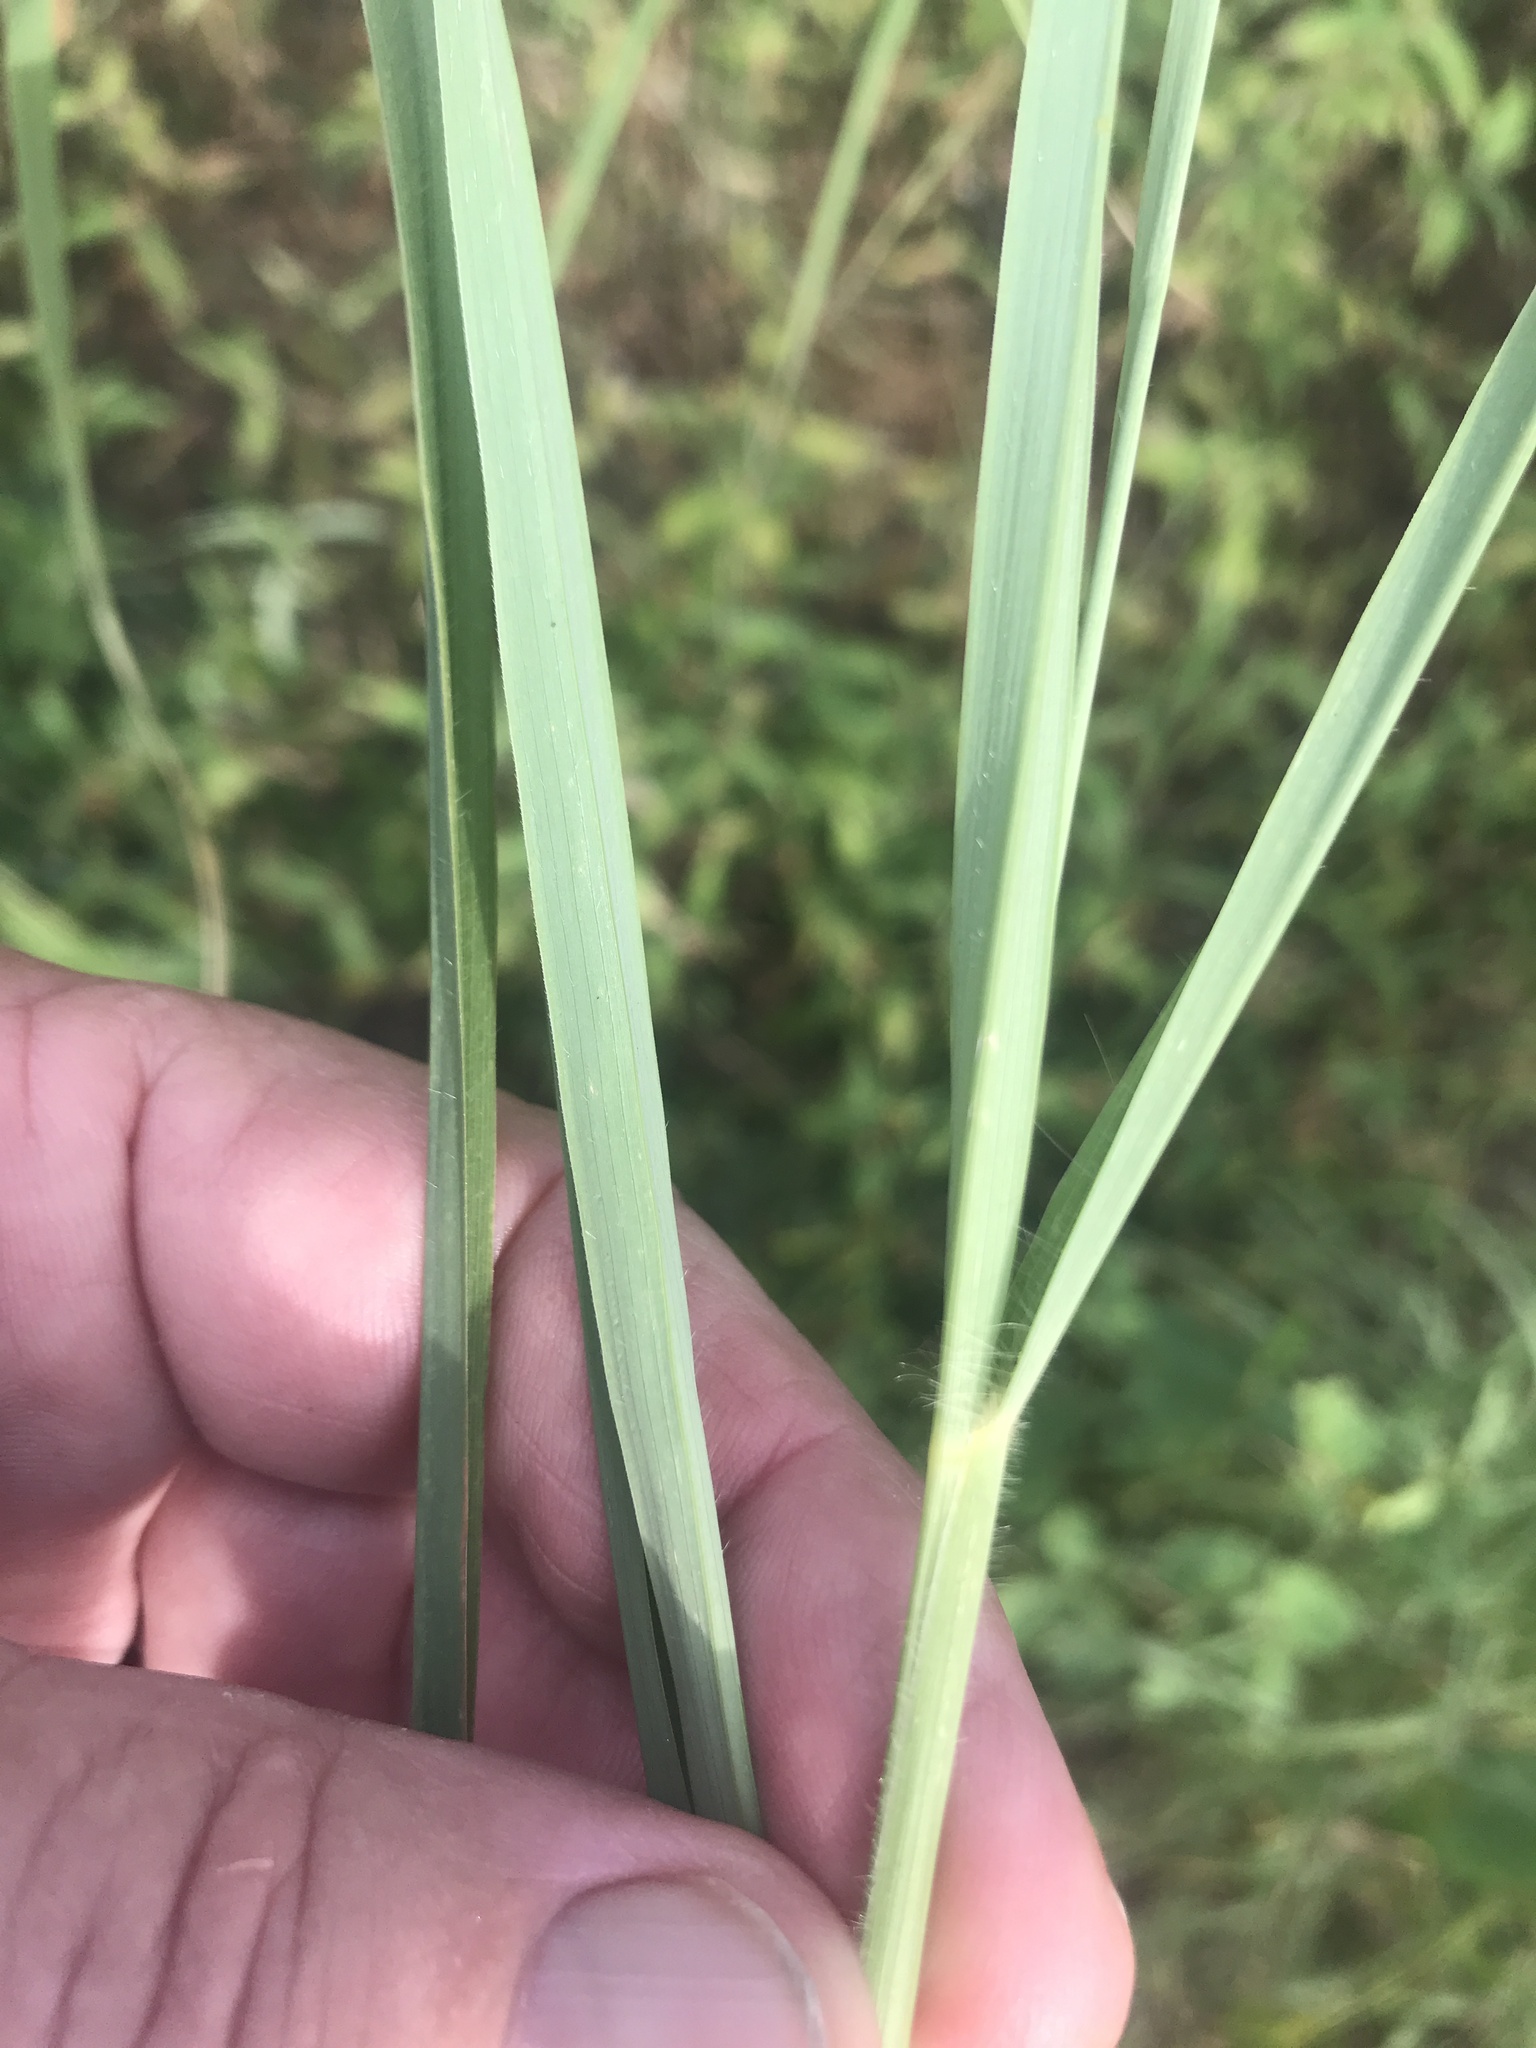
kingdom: Plantae
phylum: Tracheophyta
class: Liliopsida
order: Poales
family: Poaceae
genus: Bothriochloa
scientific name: Bothriochloa bladhii
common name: Caucasian bluestem
